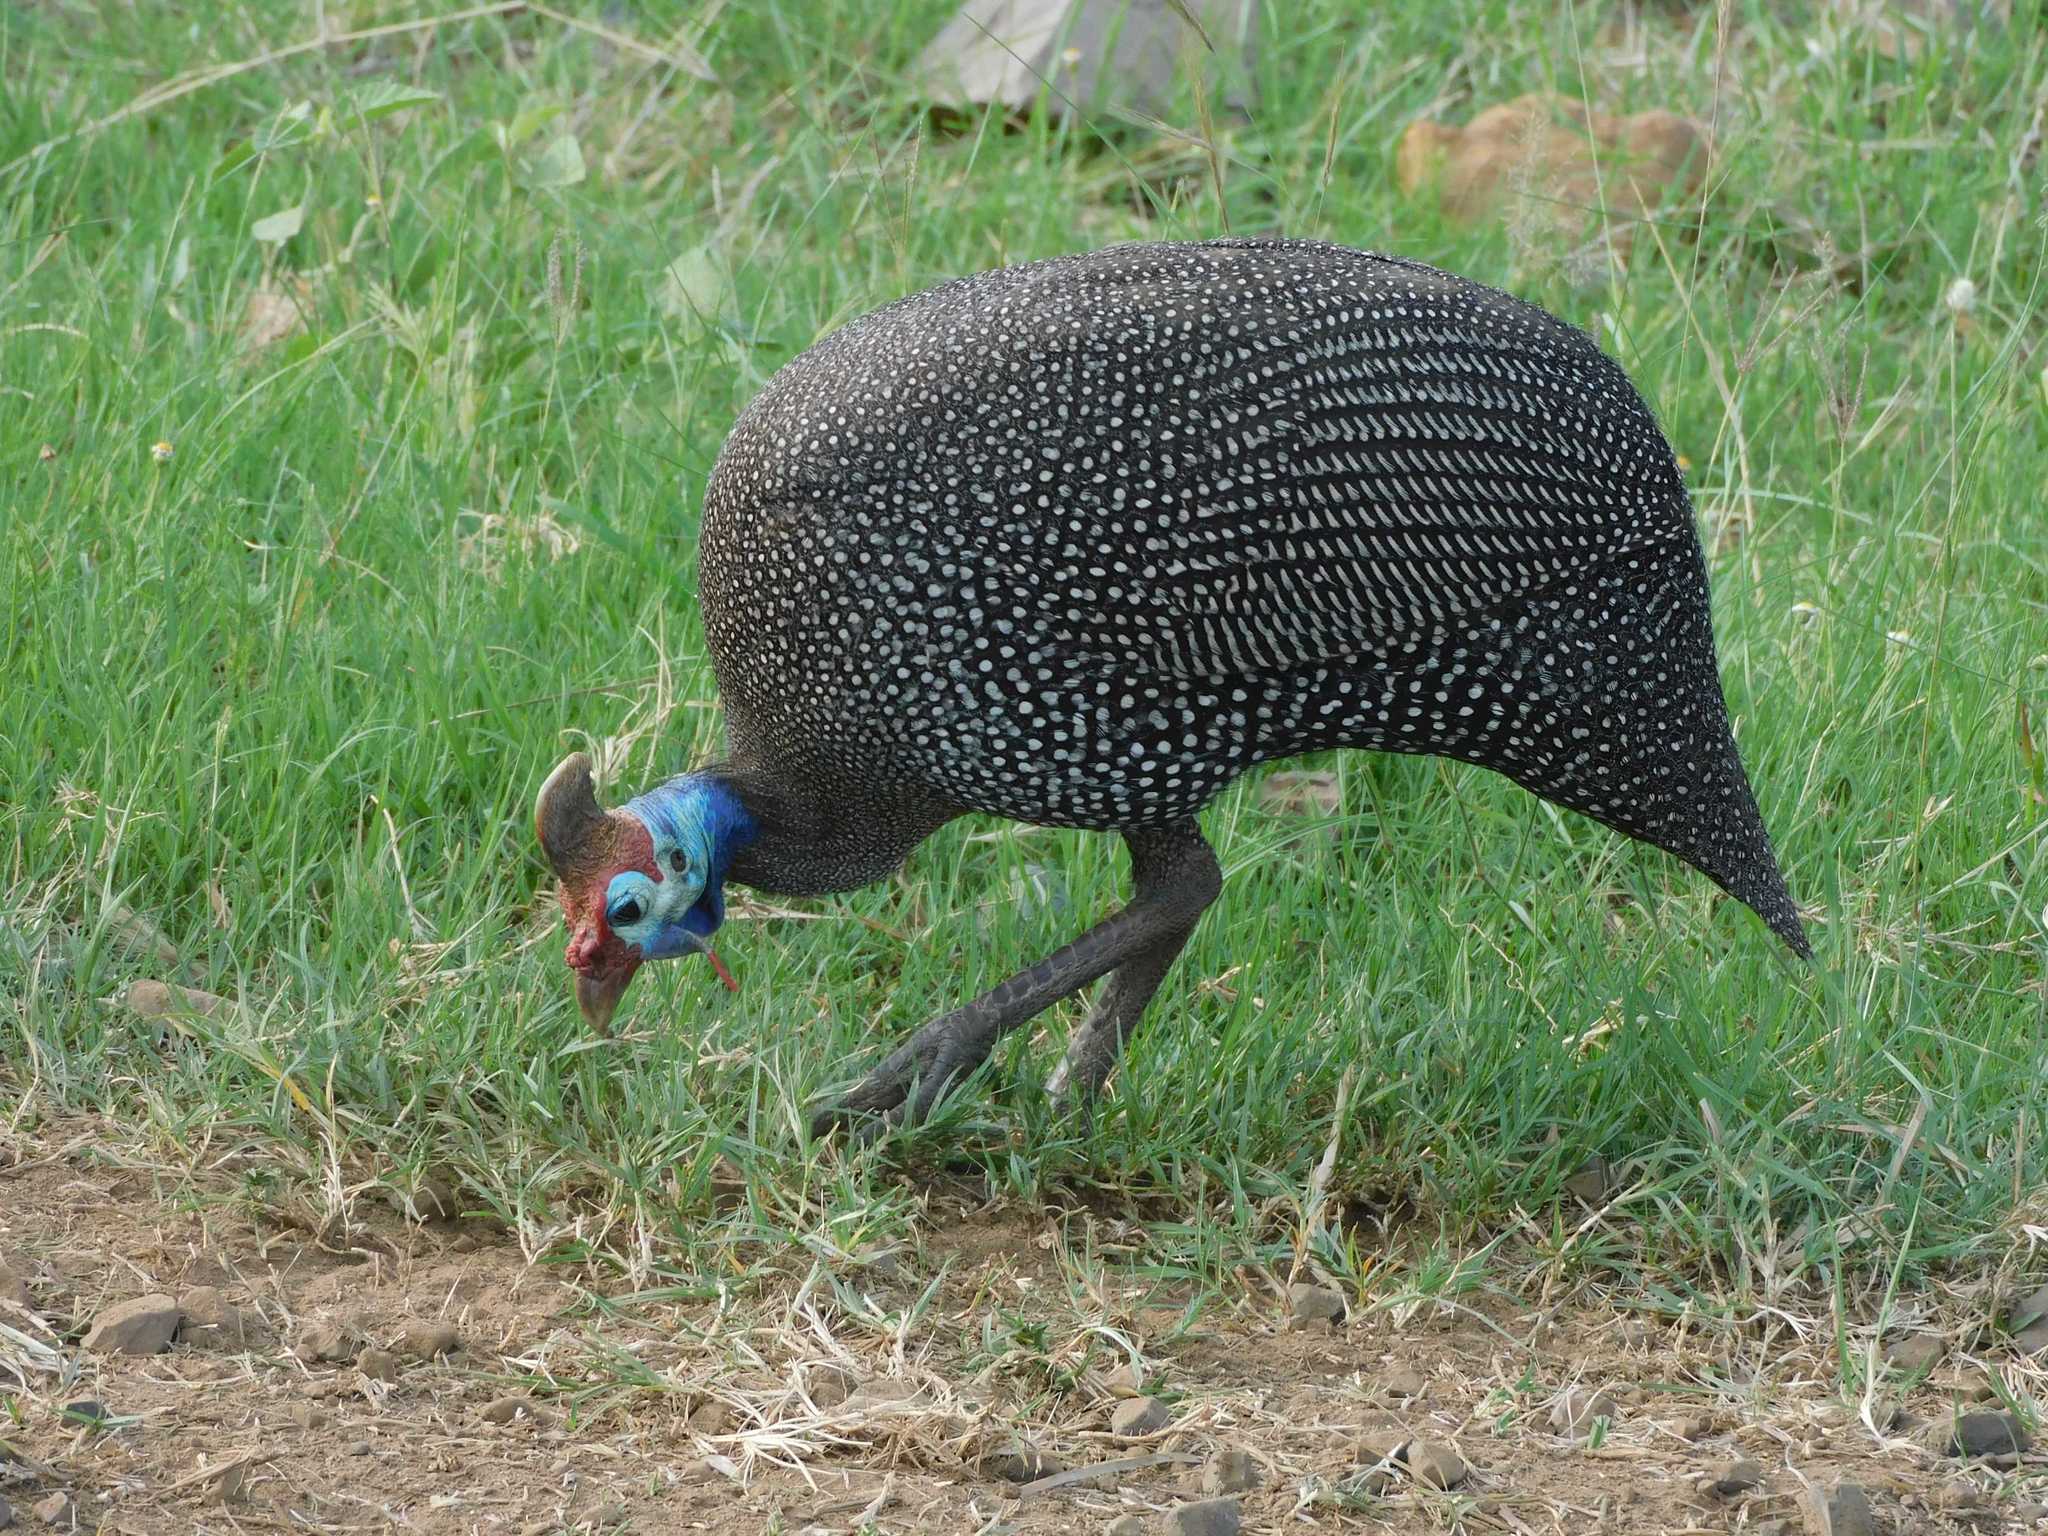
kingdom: Animalia
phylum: Chordata
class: Aves
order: Galliformes
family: Numididae
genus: Numida
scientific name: Numida meleagris
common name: Helmeted guineafowl
